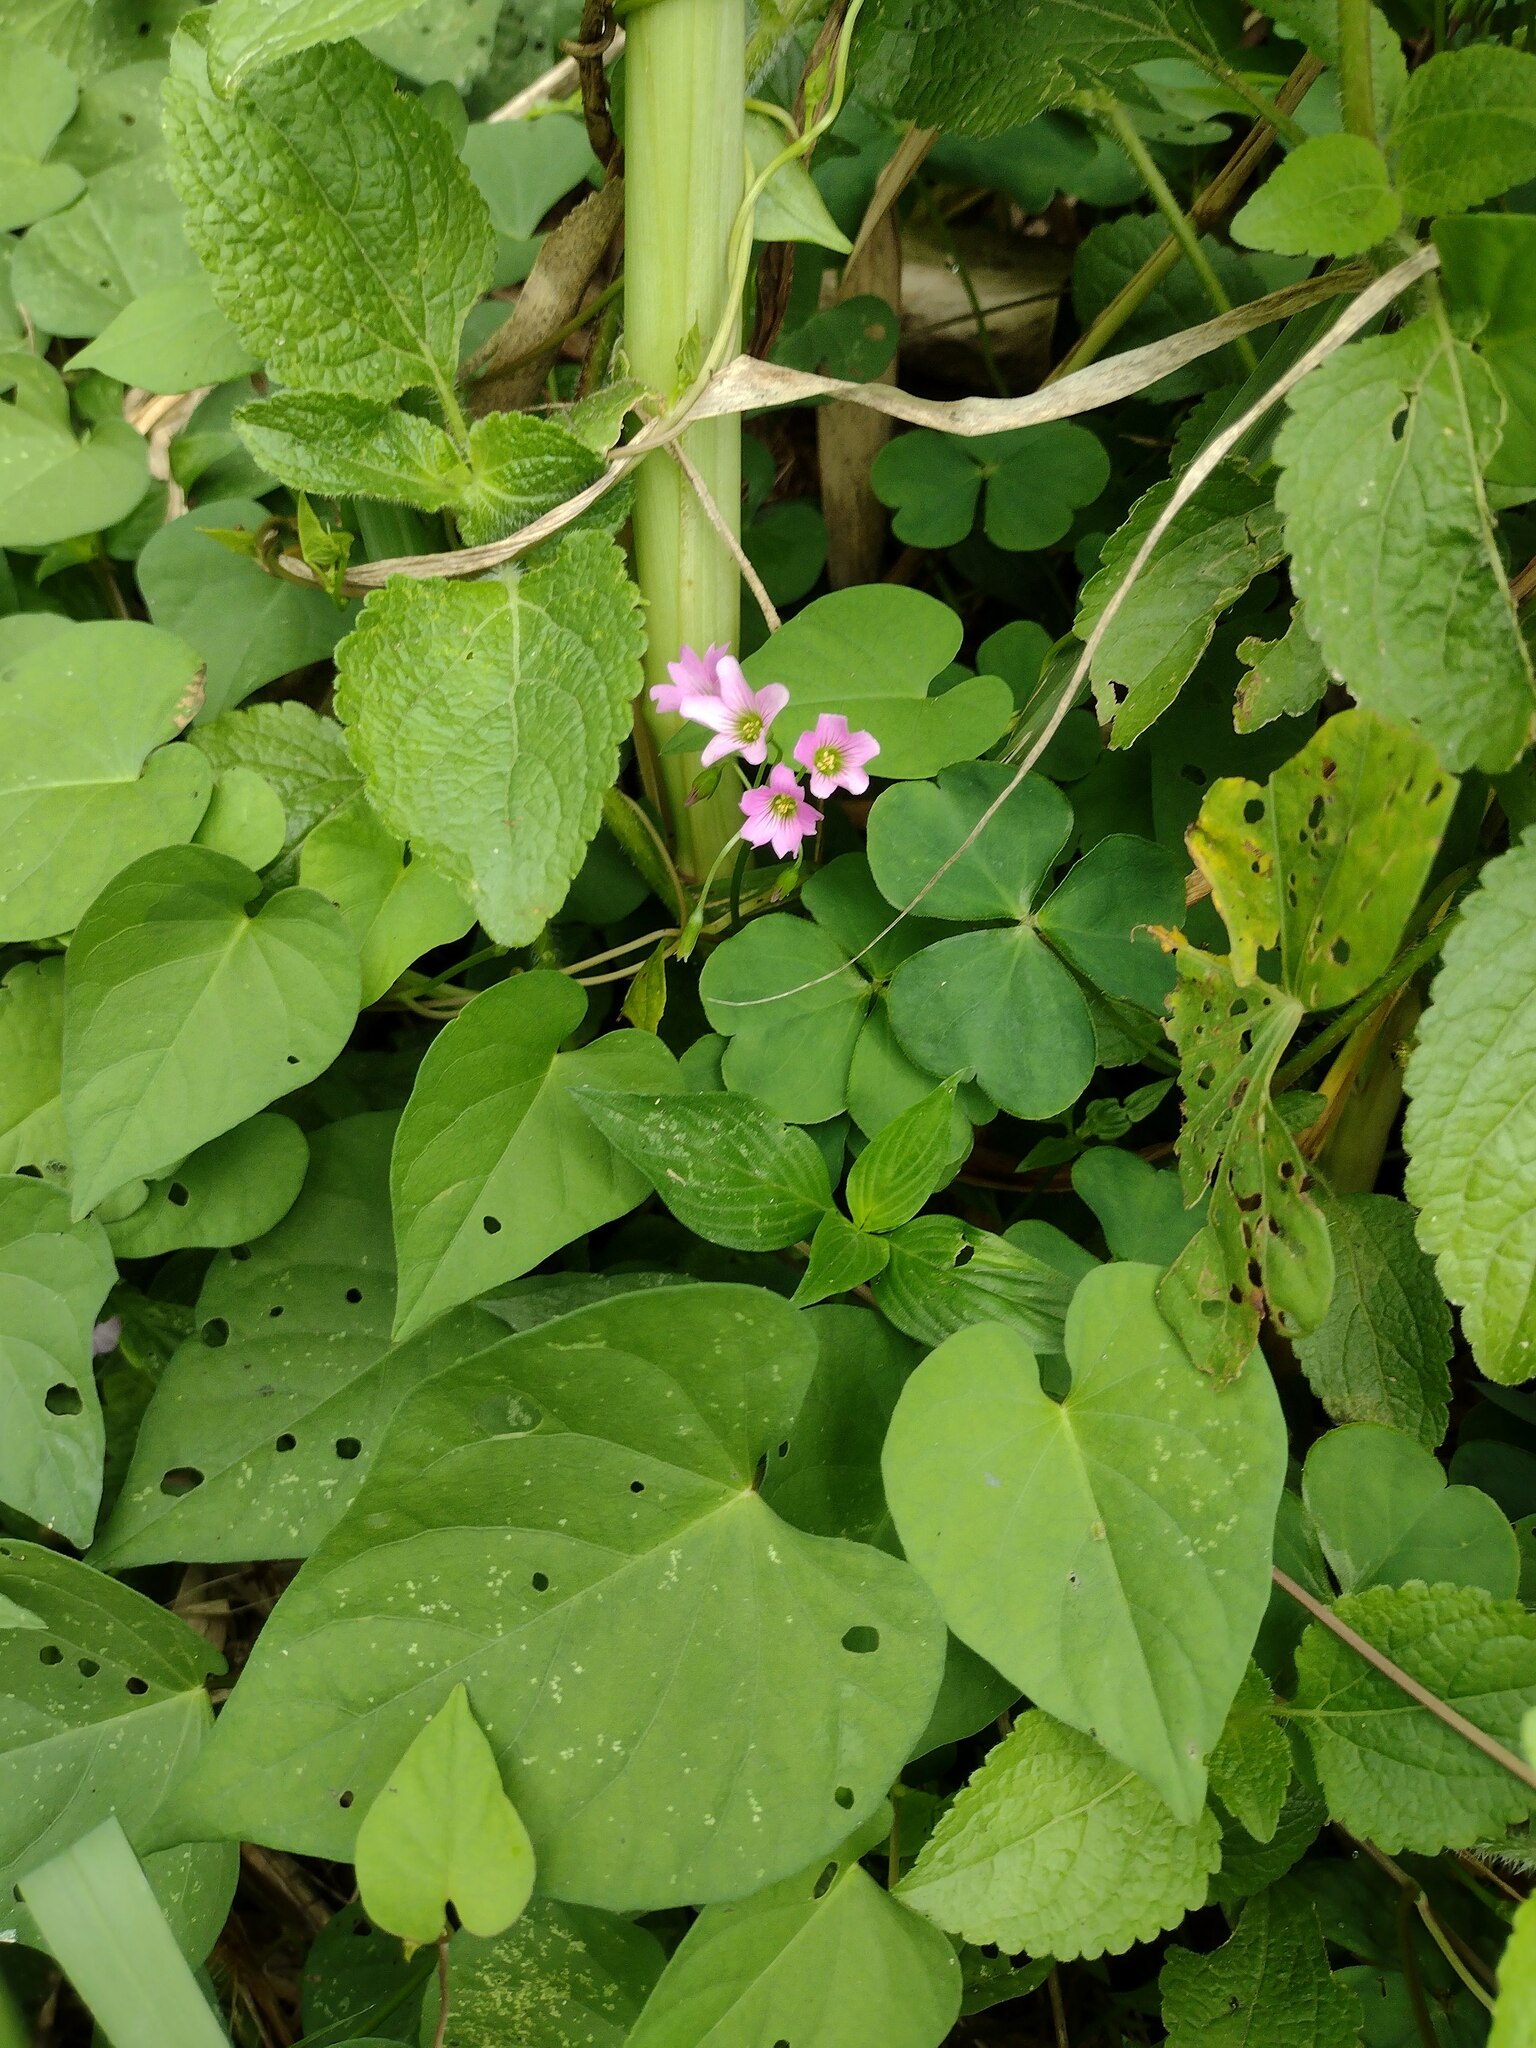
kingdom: Plantae
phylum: Tracheophyta
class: Magnoliopsida
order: Oxalidales
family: Oxalidaceae
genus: Oxalis
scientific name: Oxalis debilis
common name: Large-flowered pink-sorrel
